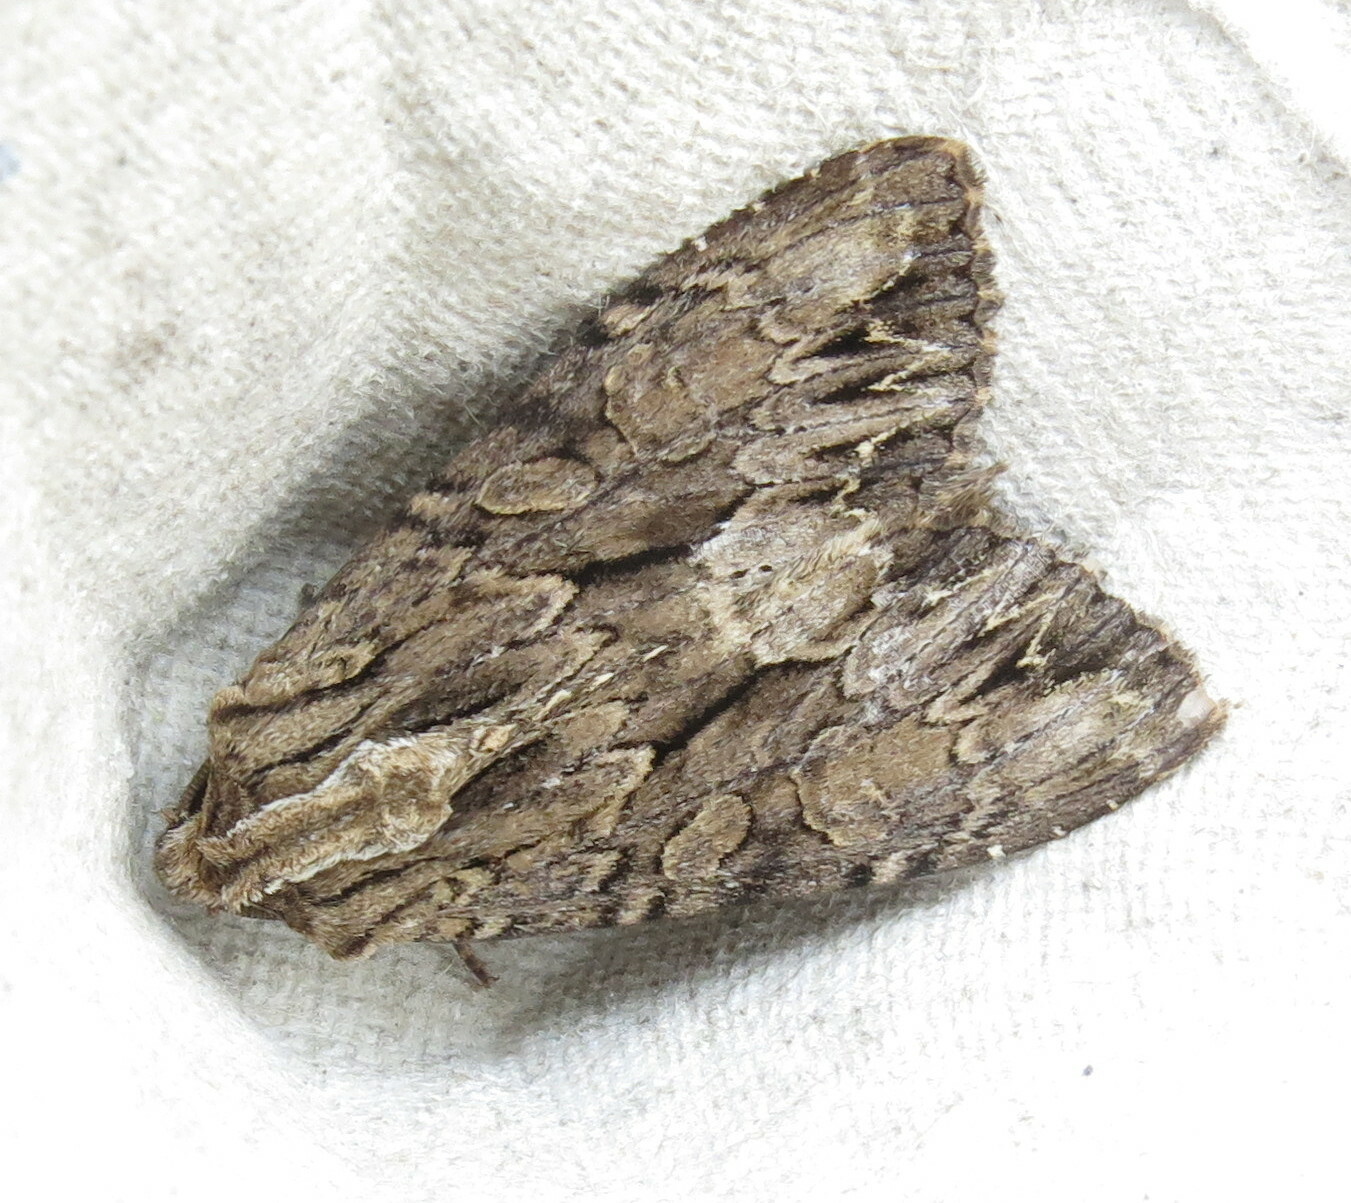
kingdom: Animalia
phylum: Arthropoda
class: Insecta
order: Lepidoptera
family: Noctuidae
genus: Apamea
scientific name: Apamea monoglypha
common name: Dark arches
